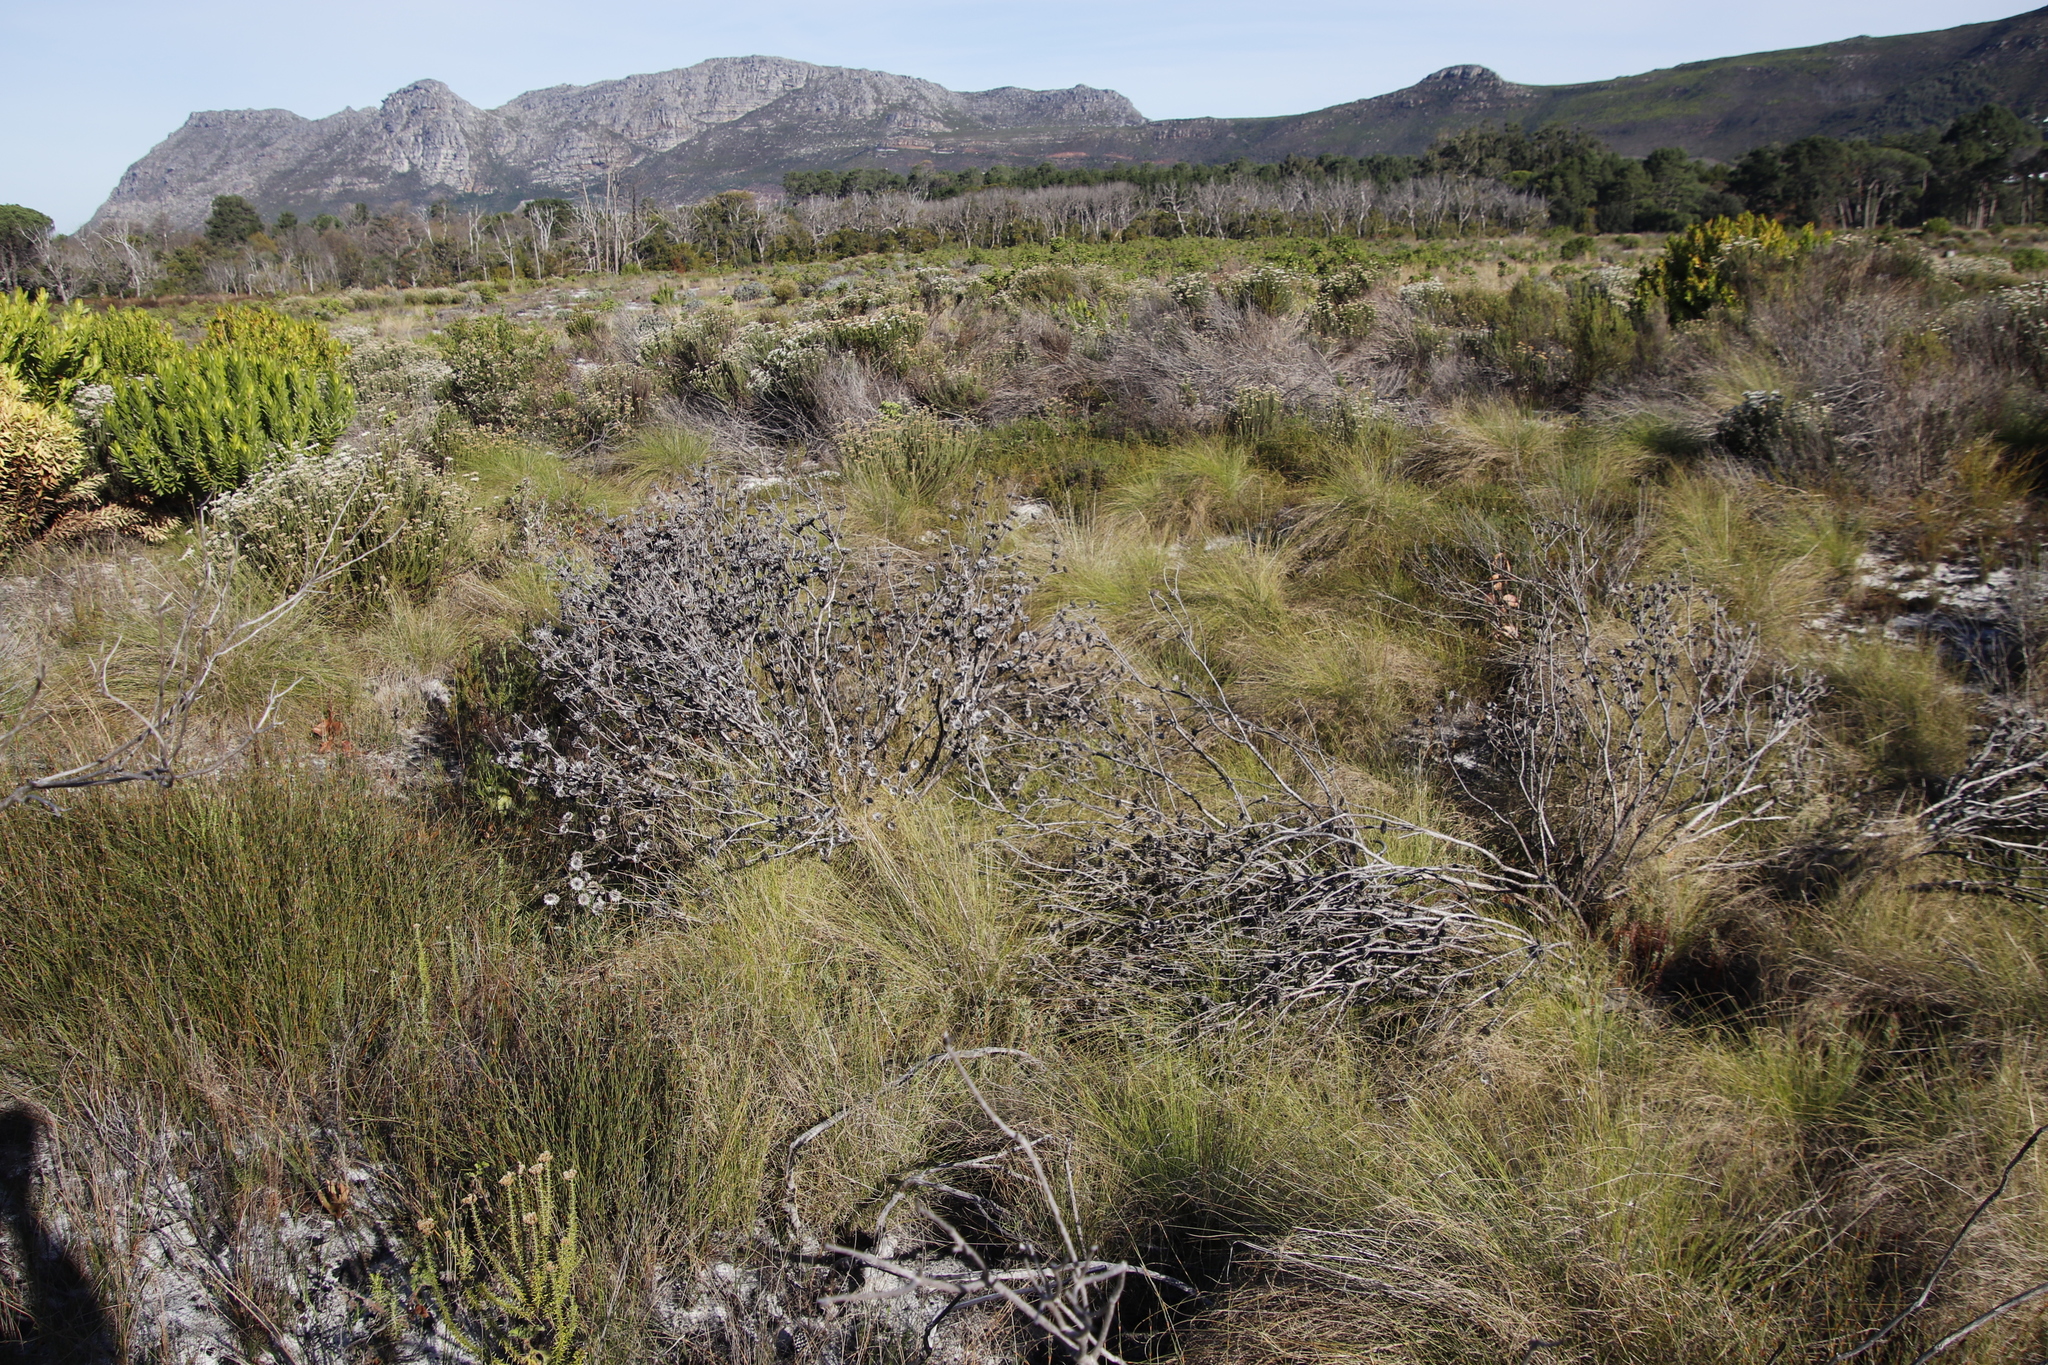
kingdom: Plantae
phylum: Tracheophyta
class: Magnoliopsida
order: Proteales
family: Proteaceae
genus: Protea
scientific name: Protea scolymocephala
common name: Thistle sugarbush
